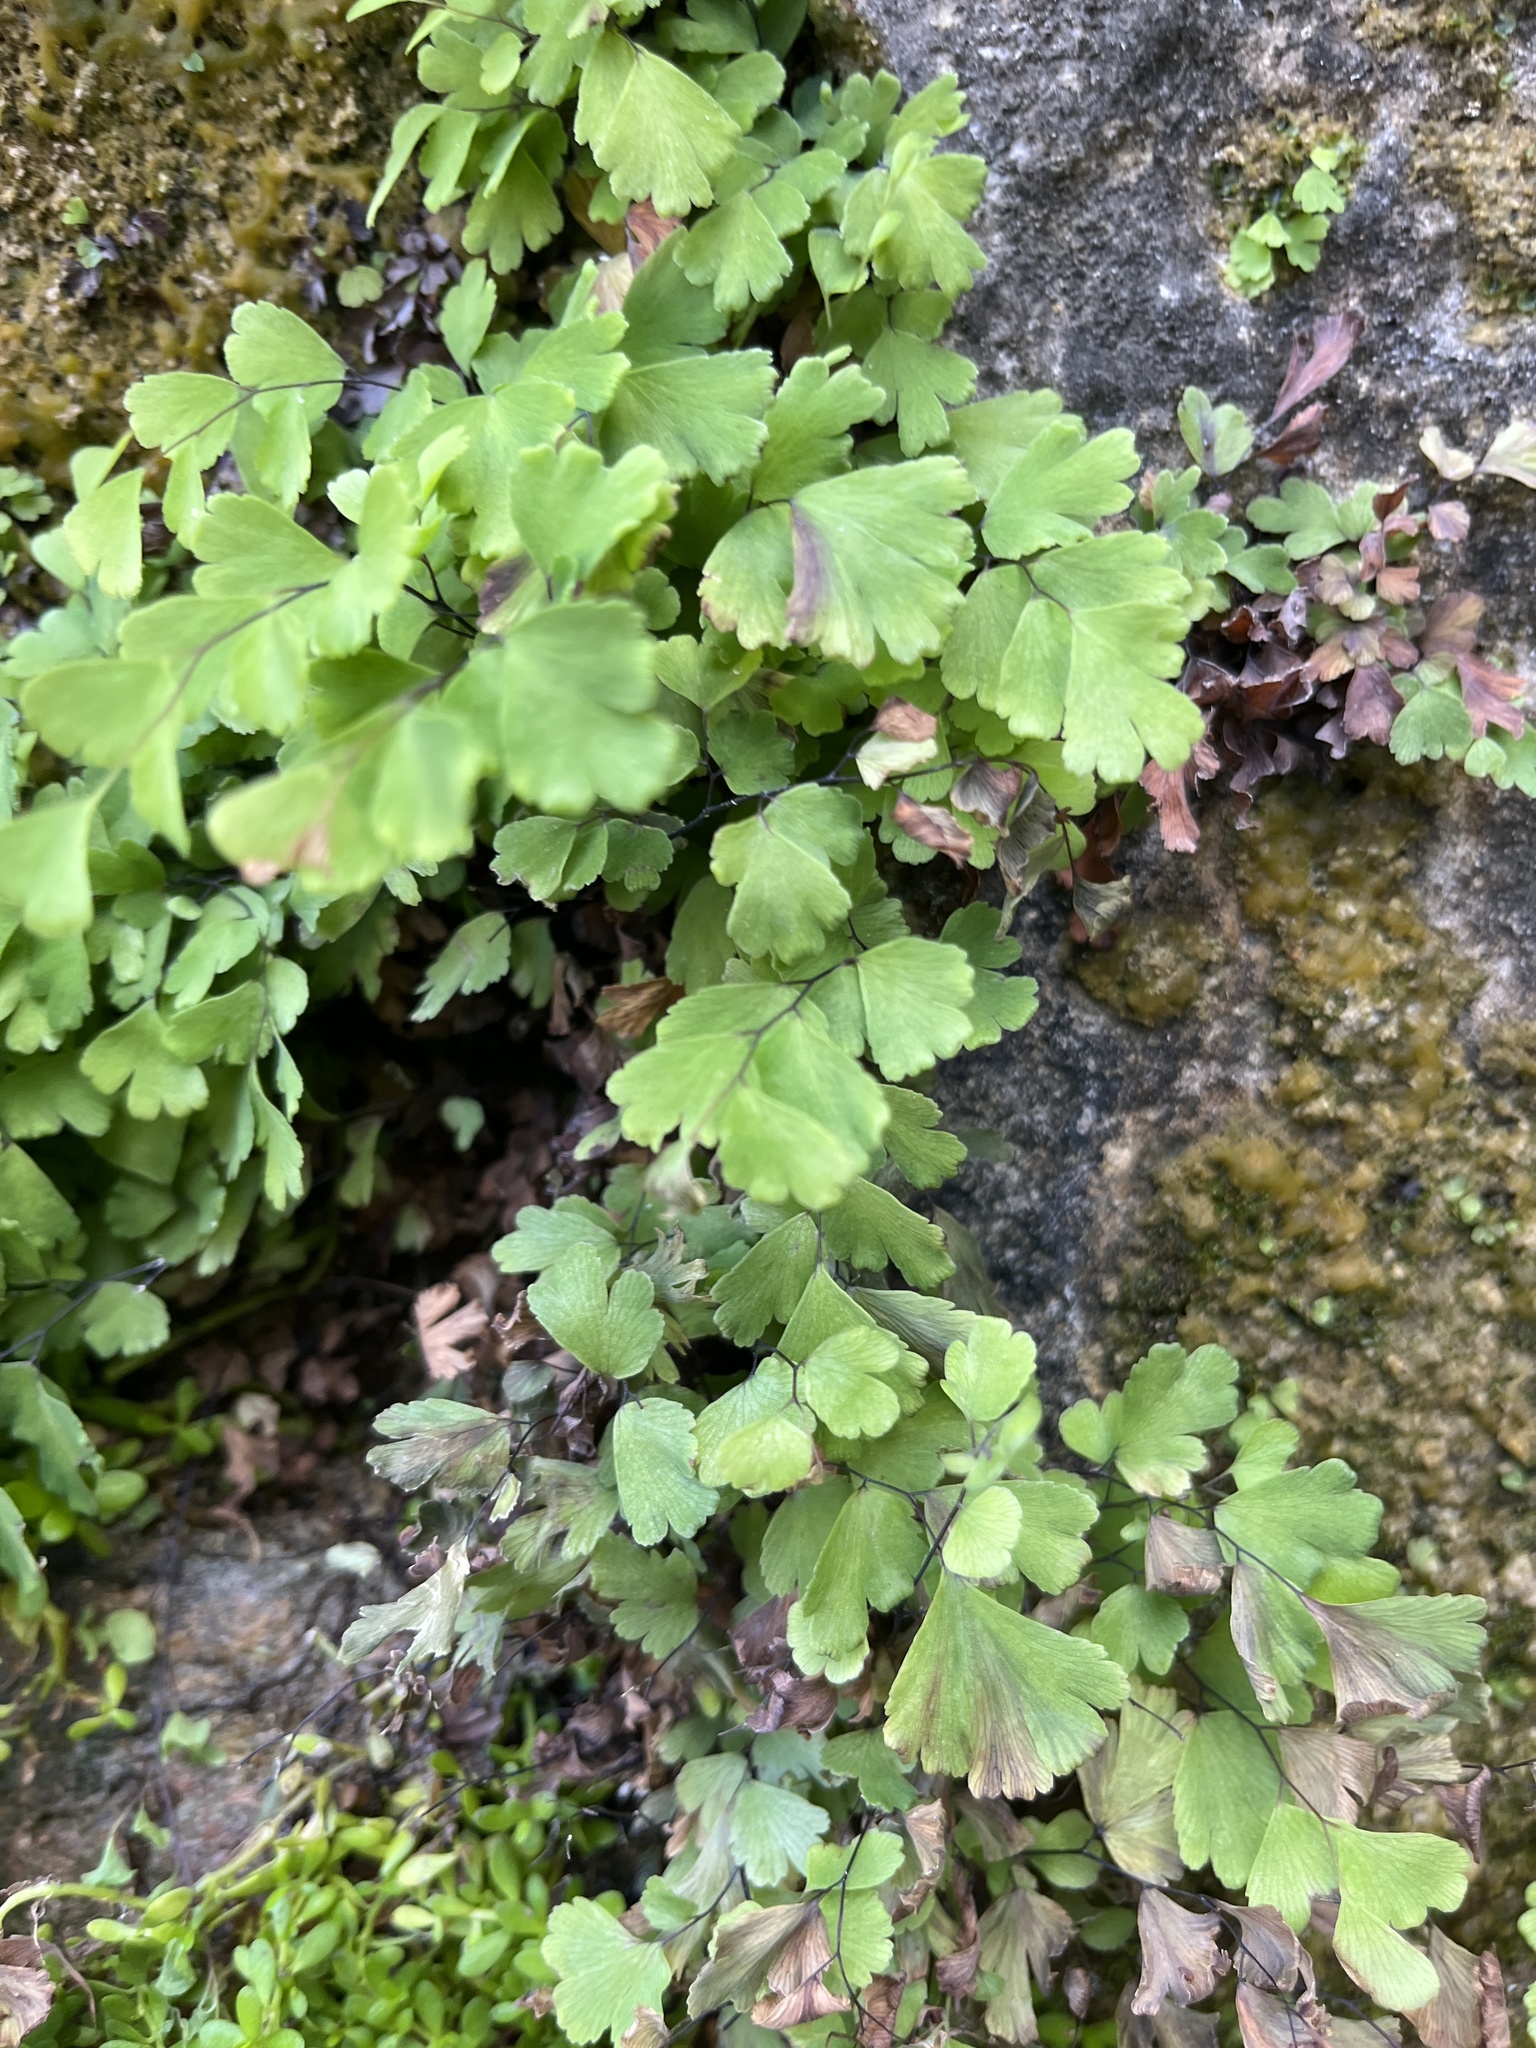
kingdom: Plantae
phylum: Tracheophyta
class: Polypodiopsida
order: Polypodiales
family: Pteridaceae
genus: Adiantum
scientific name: Adiantum capillus-veneris
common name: Maidenhair fern
